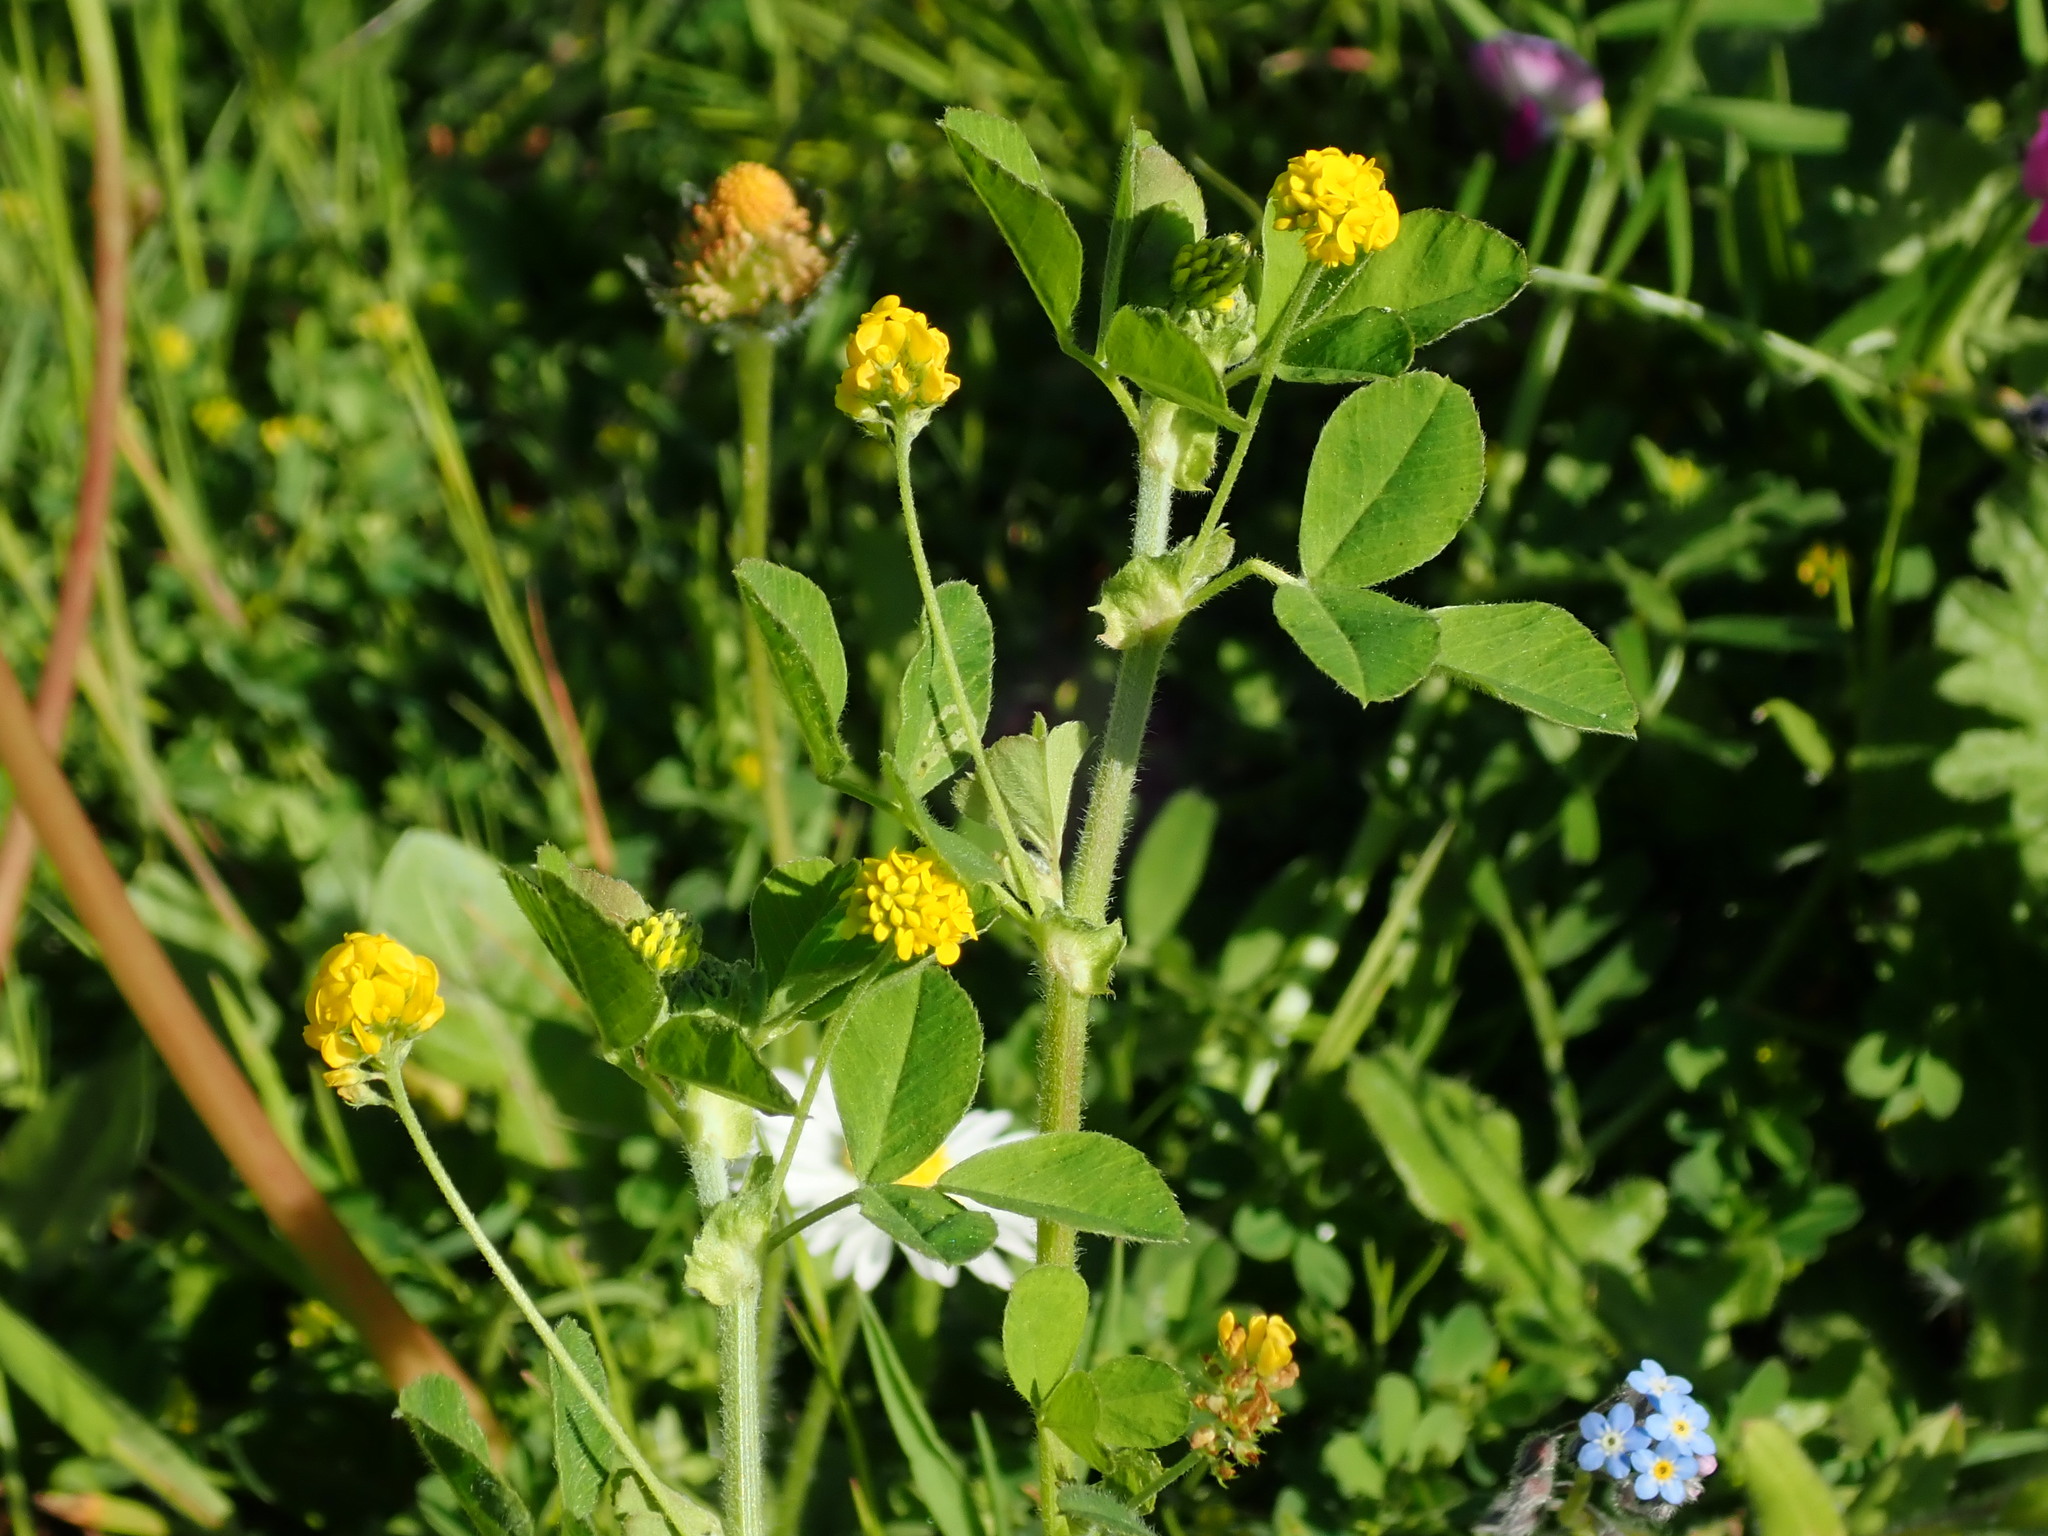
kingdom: Plantae
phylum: Tracheophyta
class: Magnoliopsida
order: Fabales
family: Fabaceae
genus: Medicago
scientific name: Medicago lupulina
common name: Black medick
